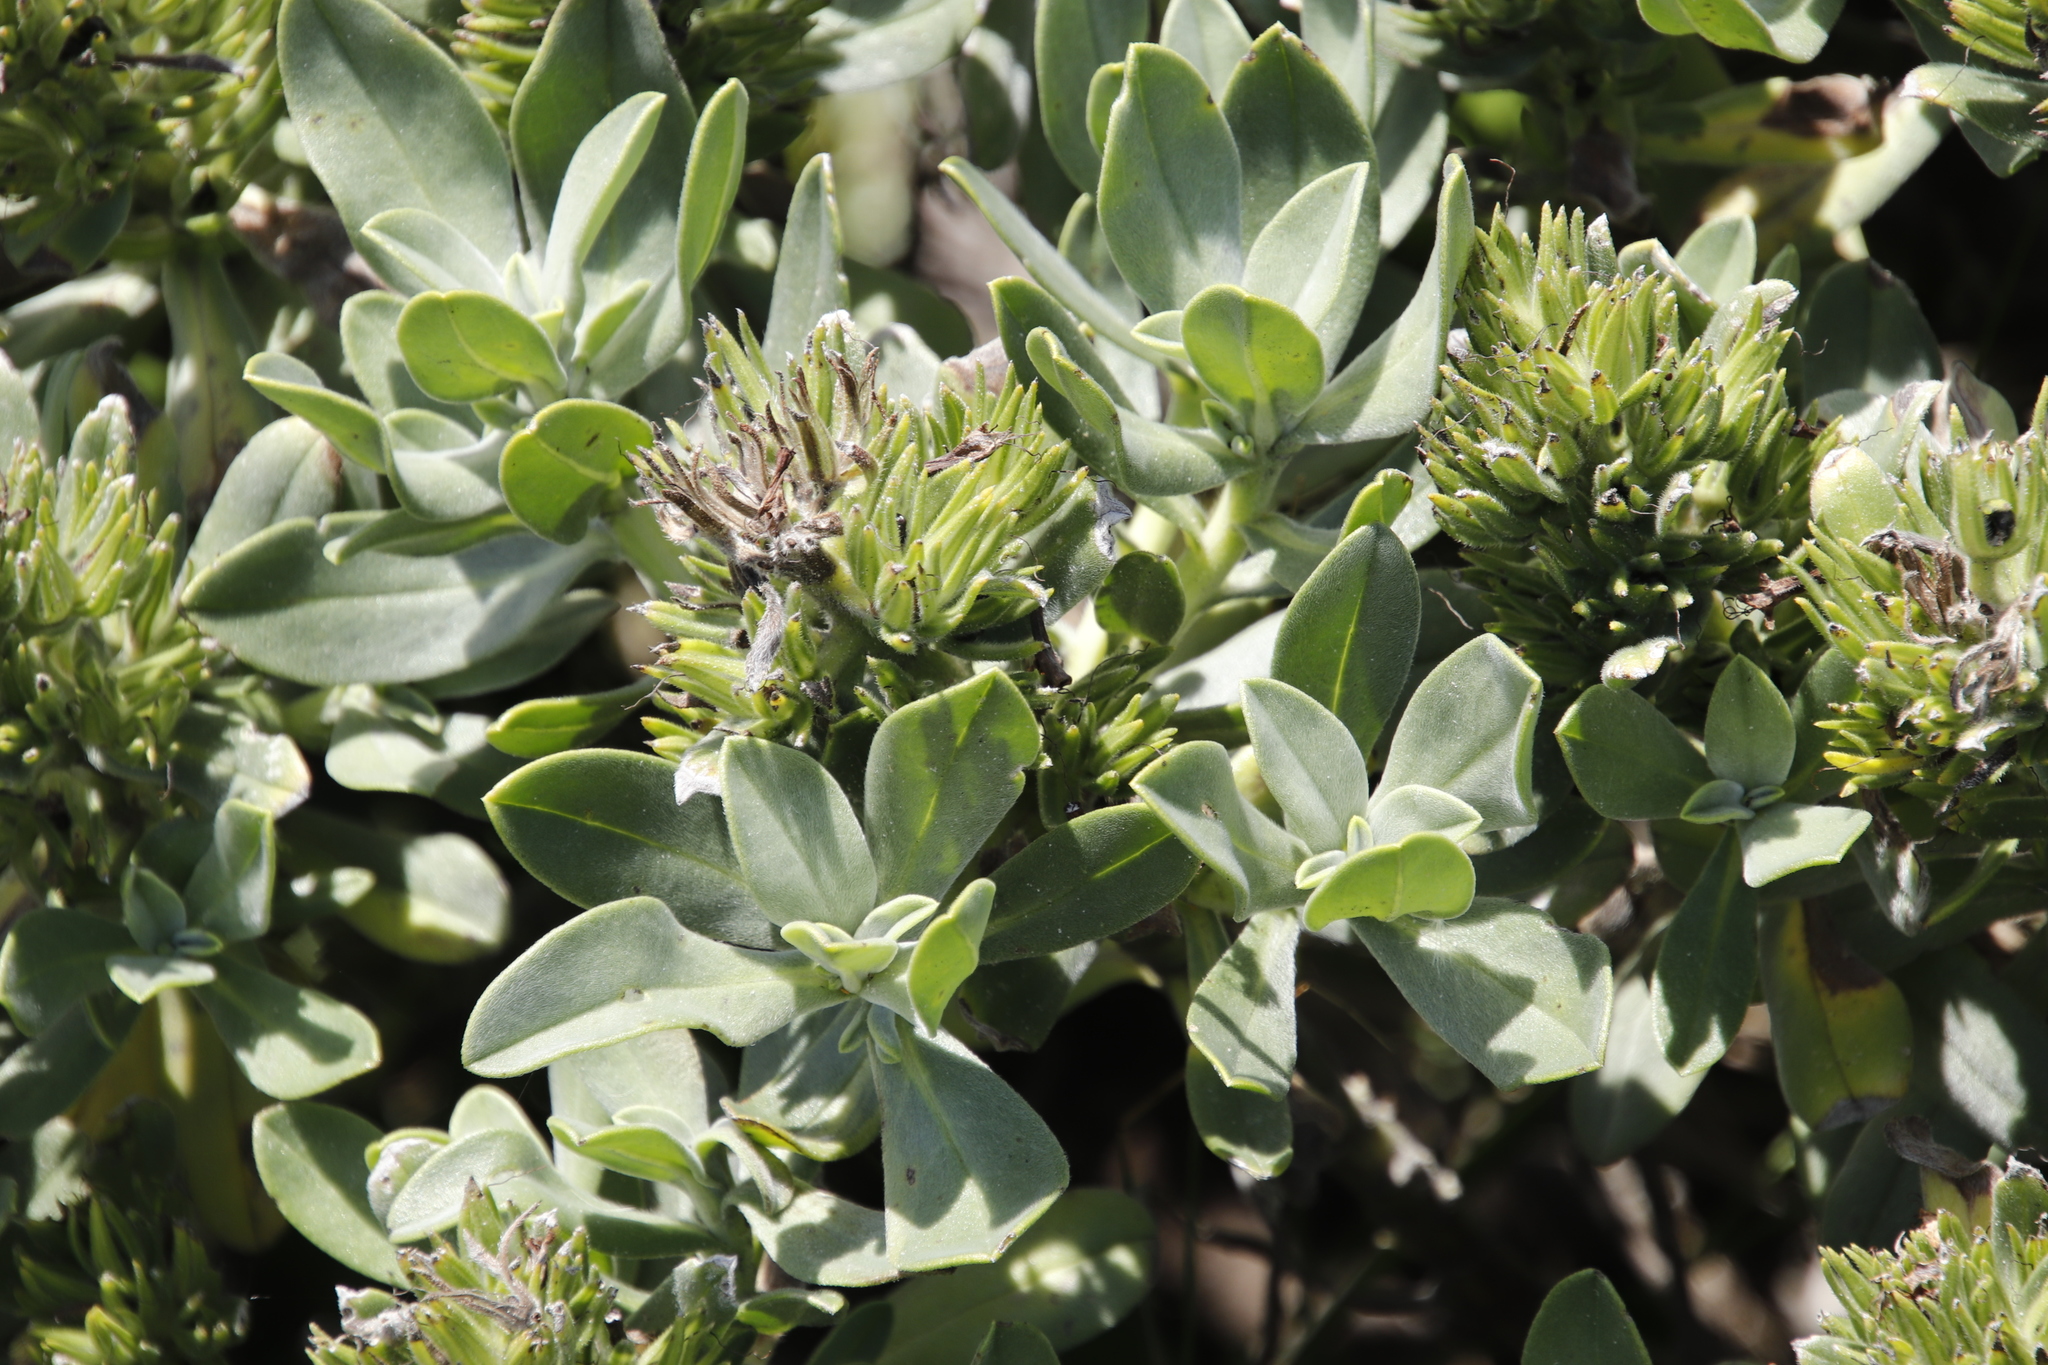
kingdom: Plantae
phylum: Tracheophyta
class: Magnoliopsida
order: Boraginales
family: Boraginaceae
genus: Lobostemon
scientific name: Lobostemon montanus
